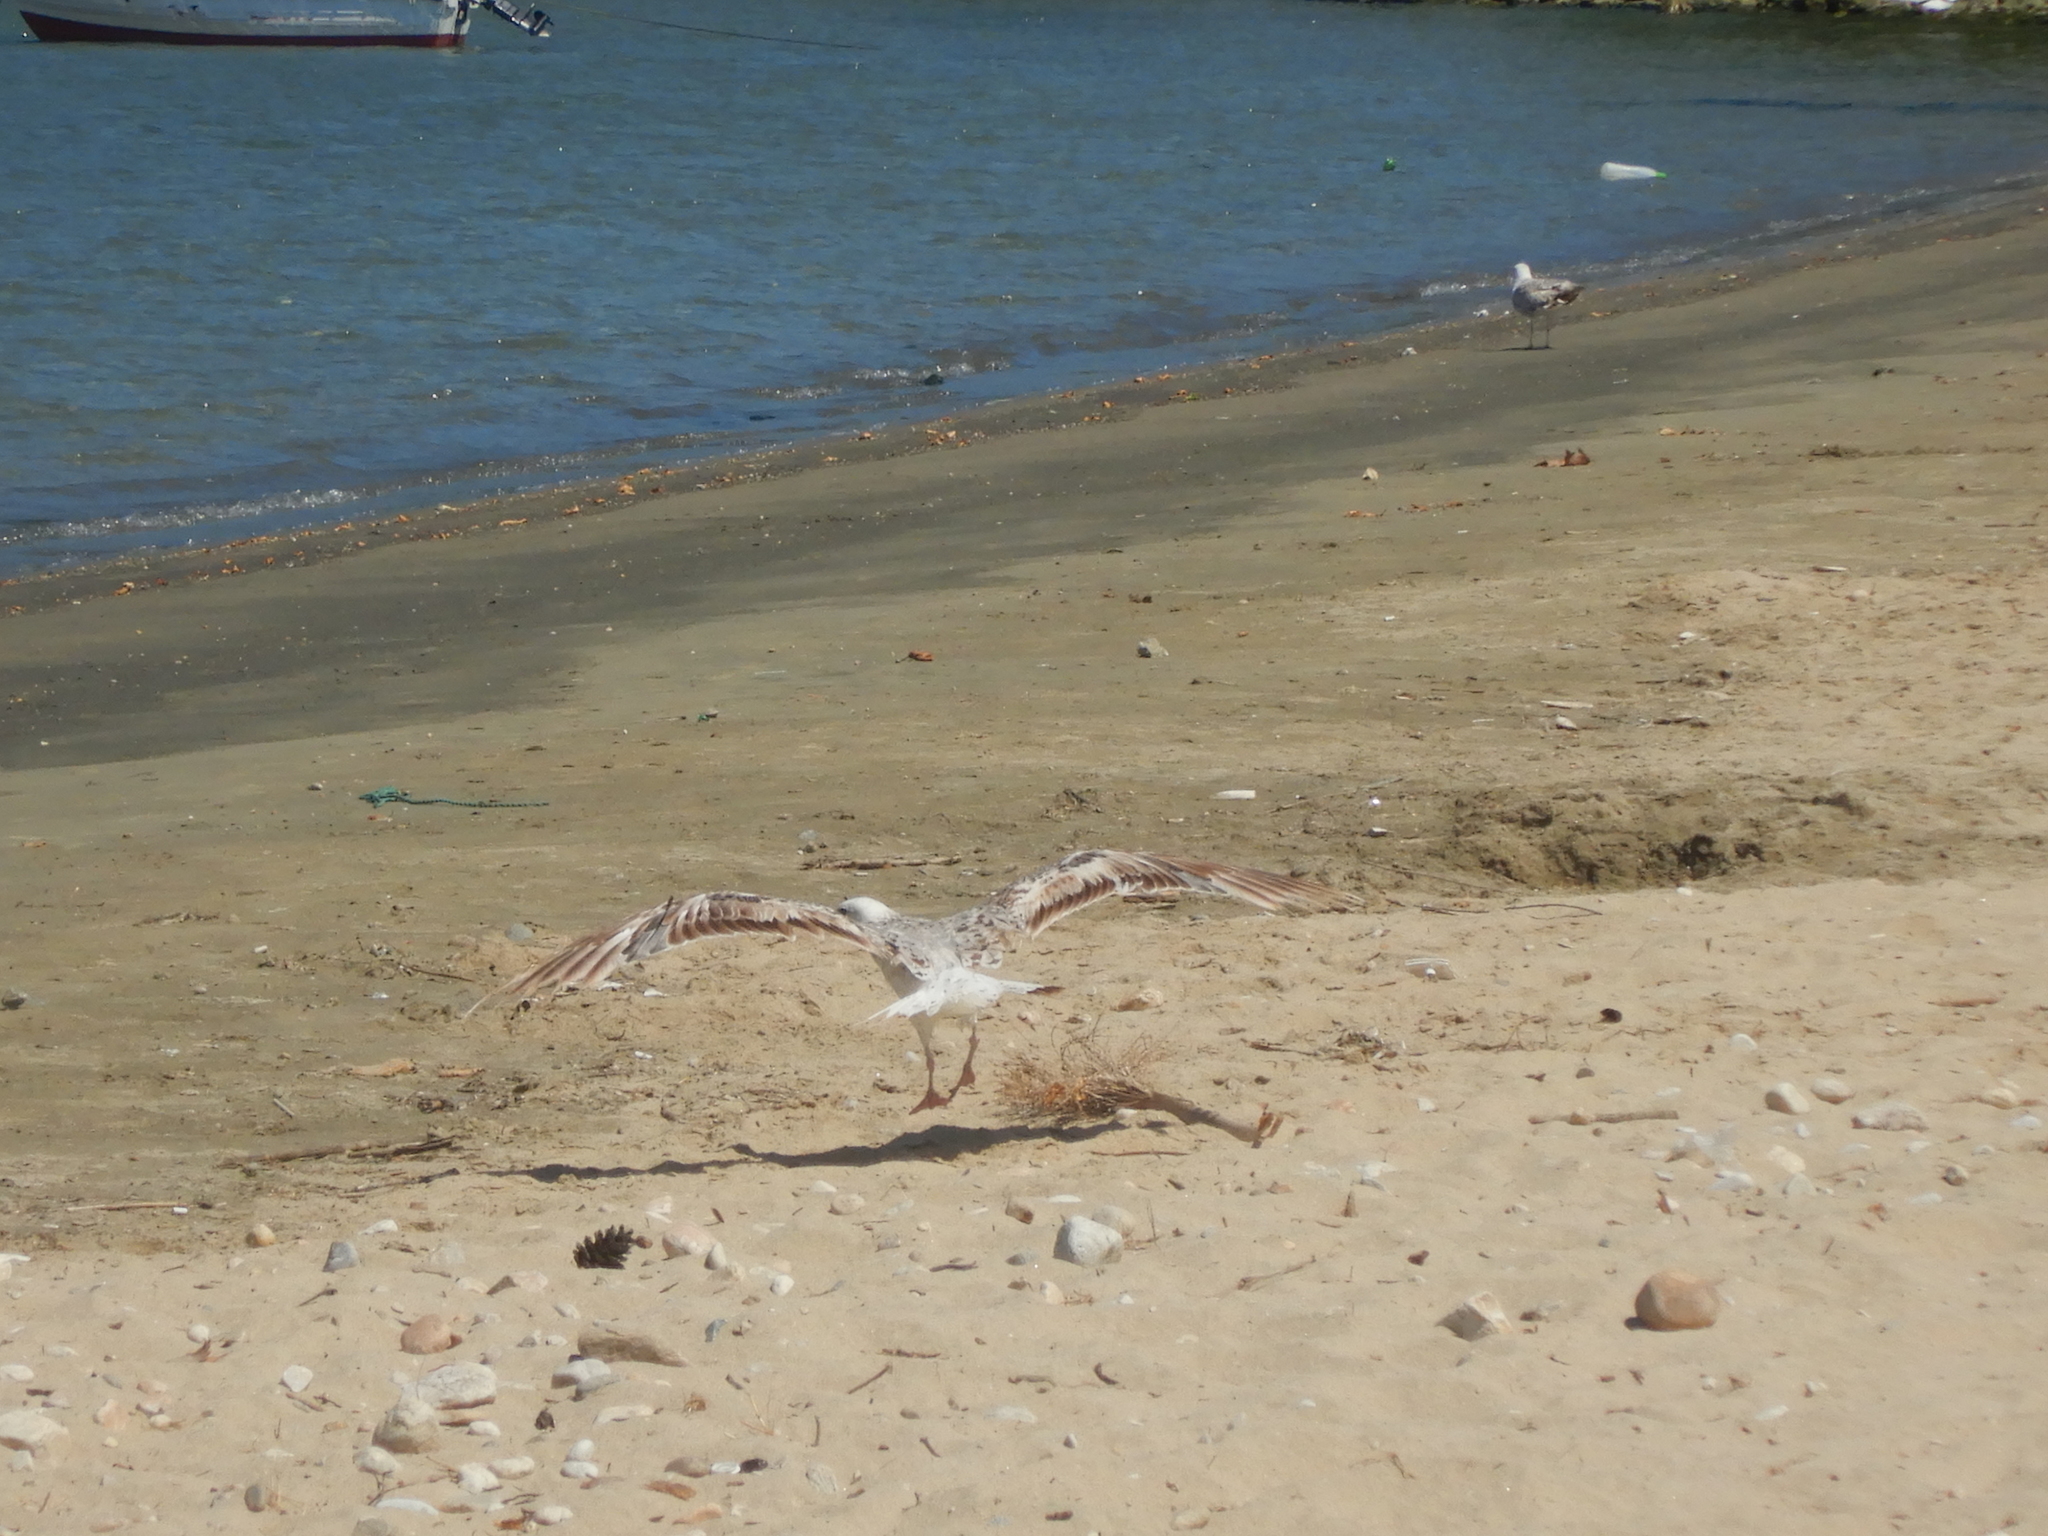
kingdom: Animalia
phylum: Chordata
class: Aves
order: Charadriiformes
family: Laridae
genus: Larus
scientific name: Larus michahellis
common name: Yellow-legged gull
